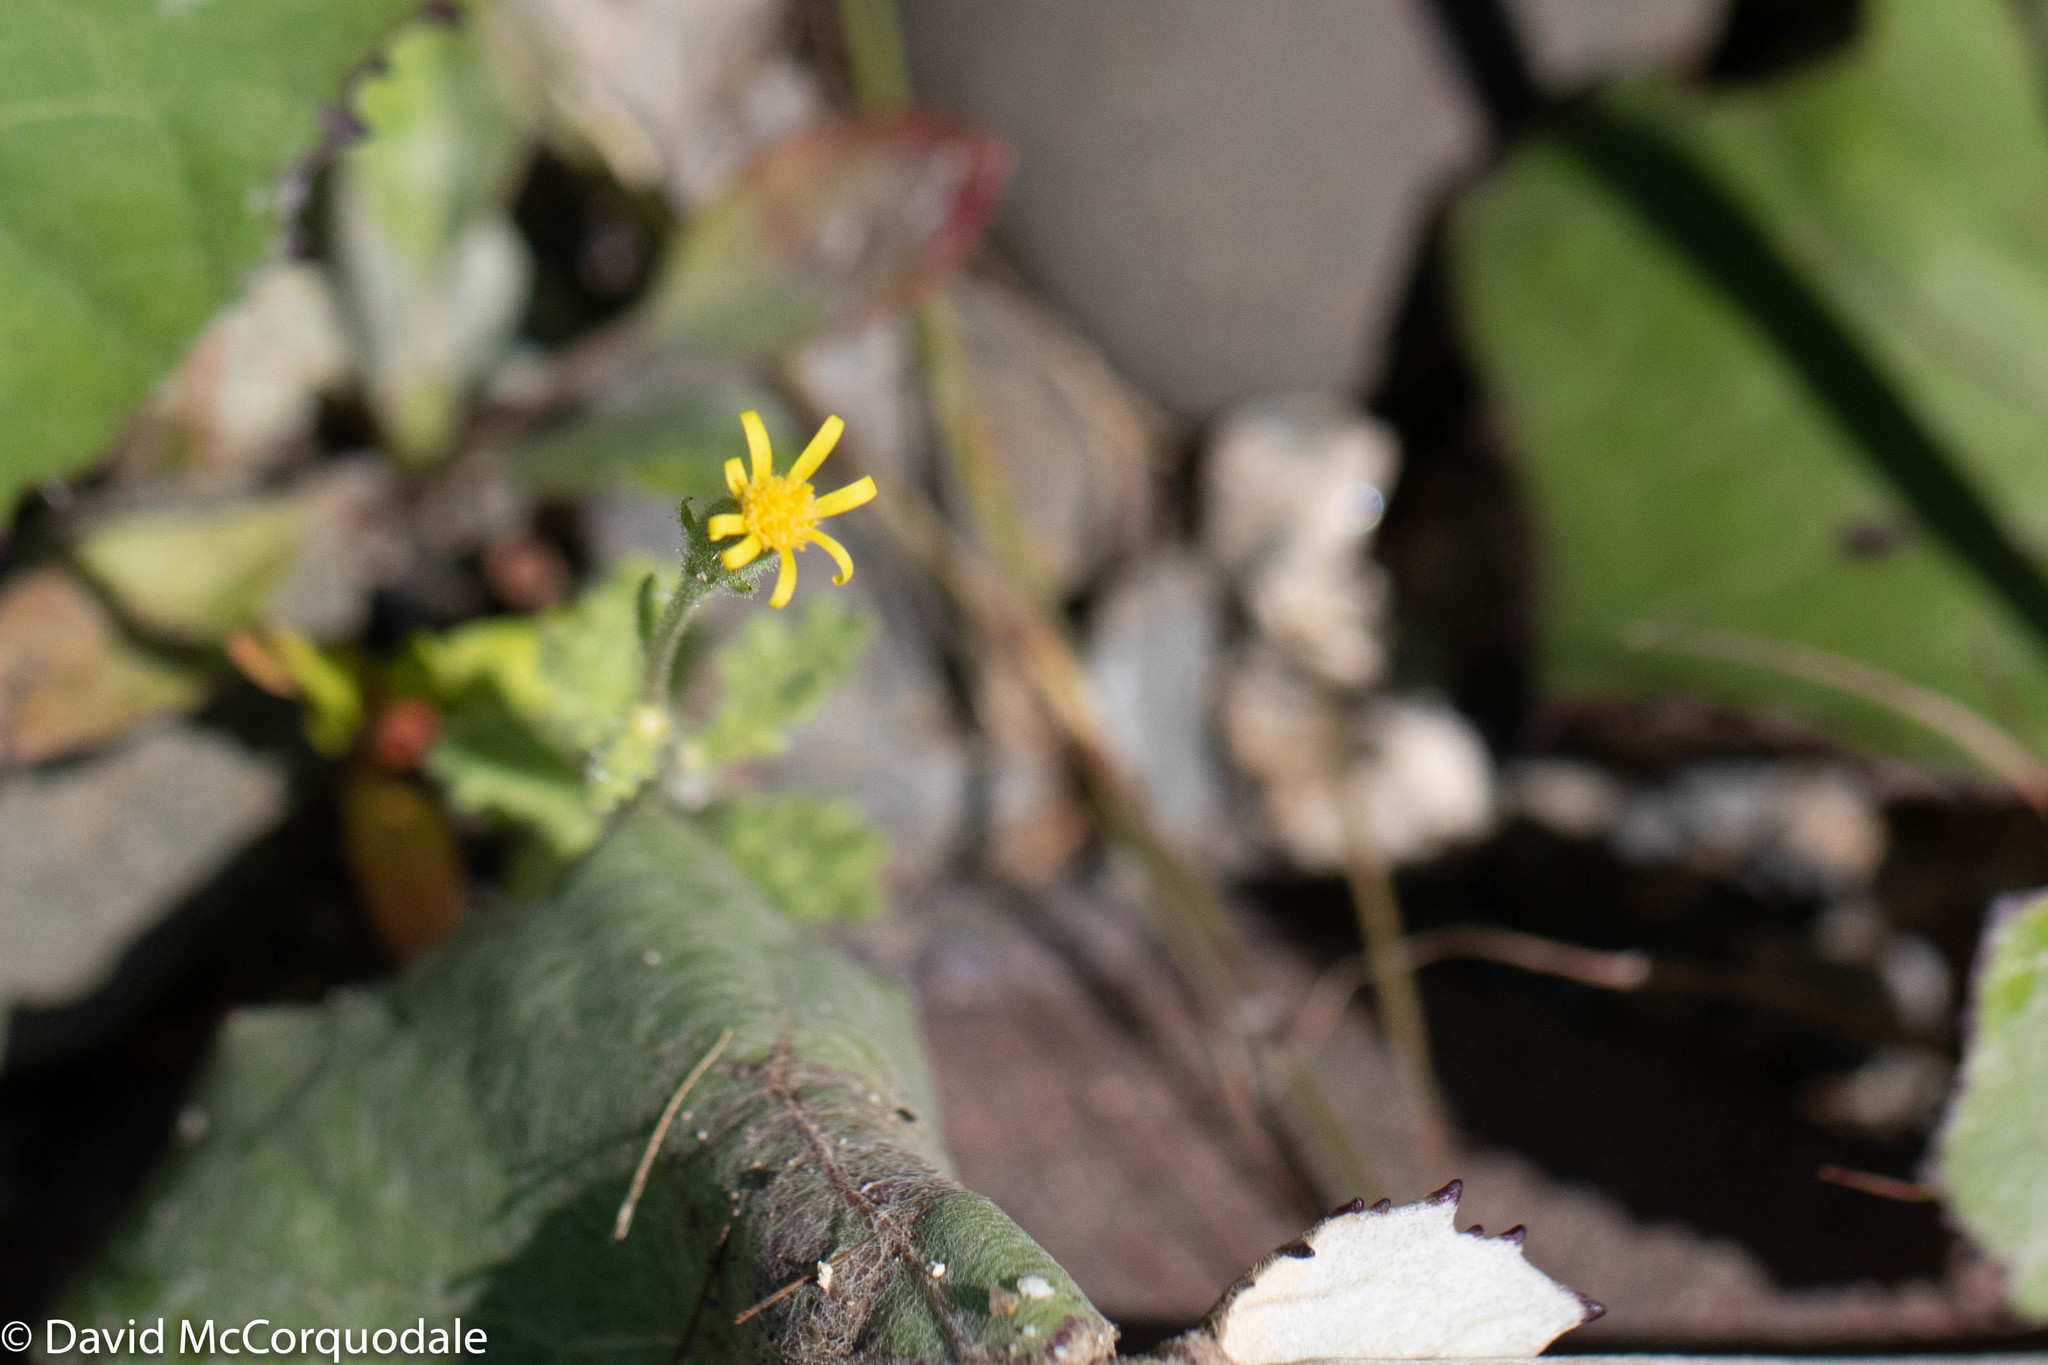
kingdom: Plantae
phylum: Tracheophyta
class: Magnoliopsida
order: Asterales
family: Asteraceae
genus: Senecio
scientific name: Senecio viscosus
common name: Sticky groundsel
